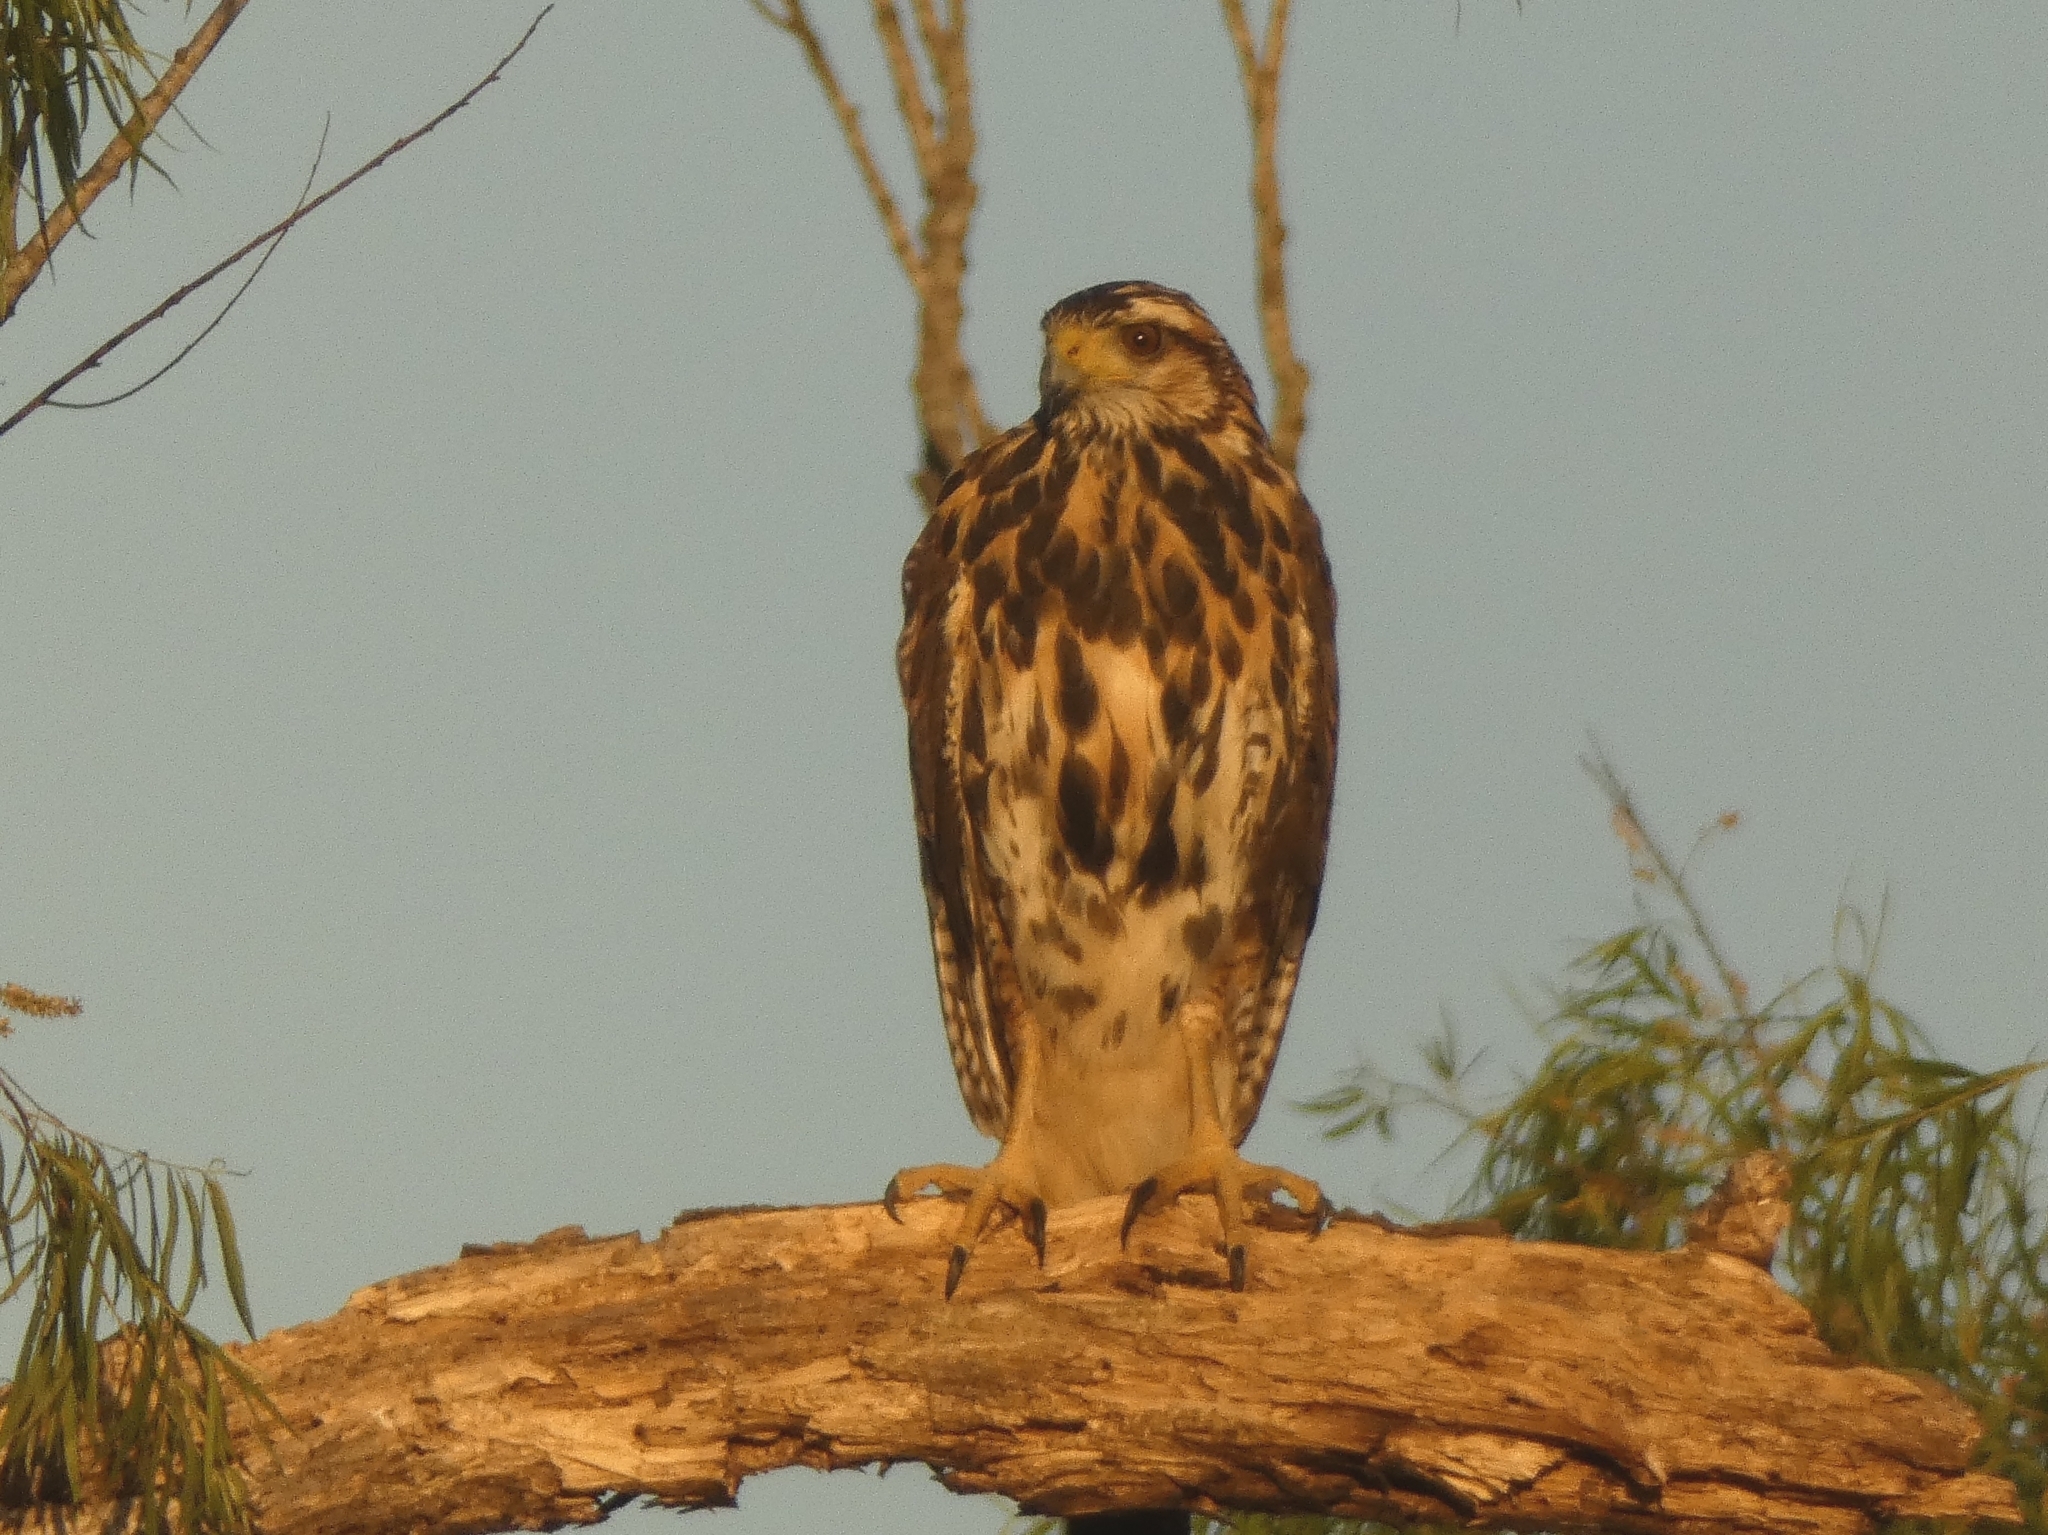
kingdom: Animalia
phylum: Chordata
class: Aves
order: Accipitriformes
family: Accipitridae
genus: Parabuteo
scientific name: Parabuteo unicinctus
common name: Harris's hawk
